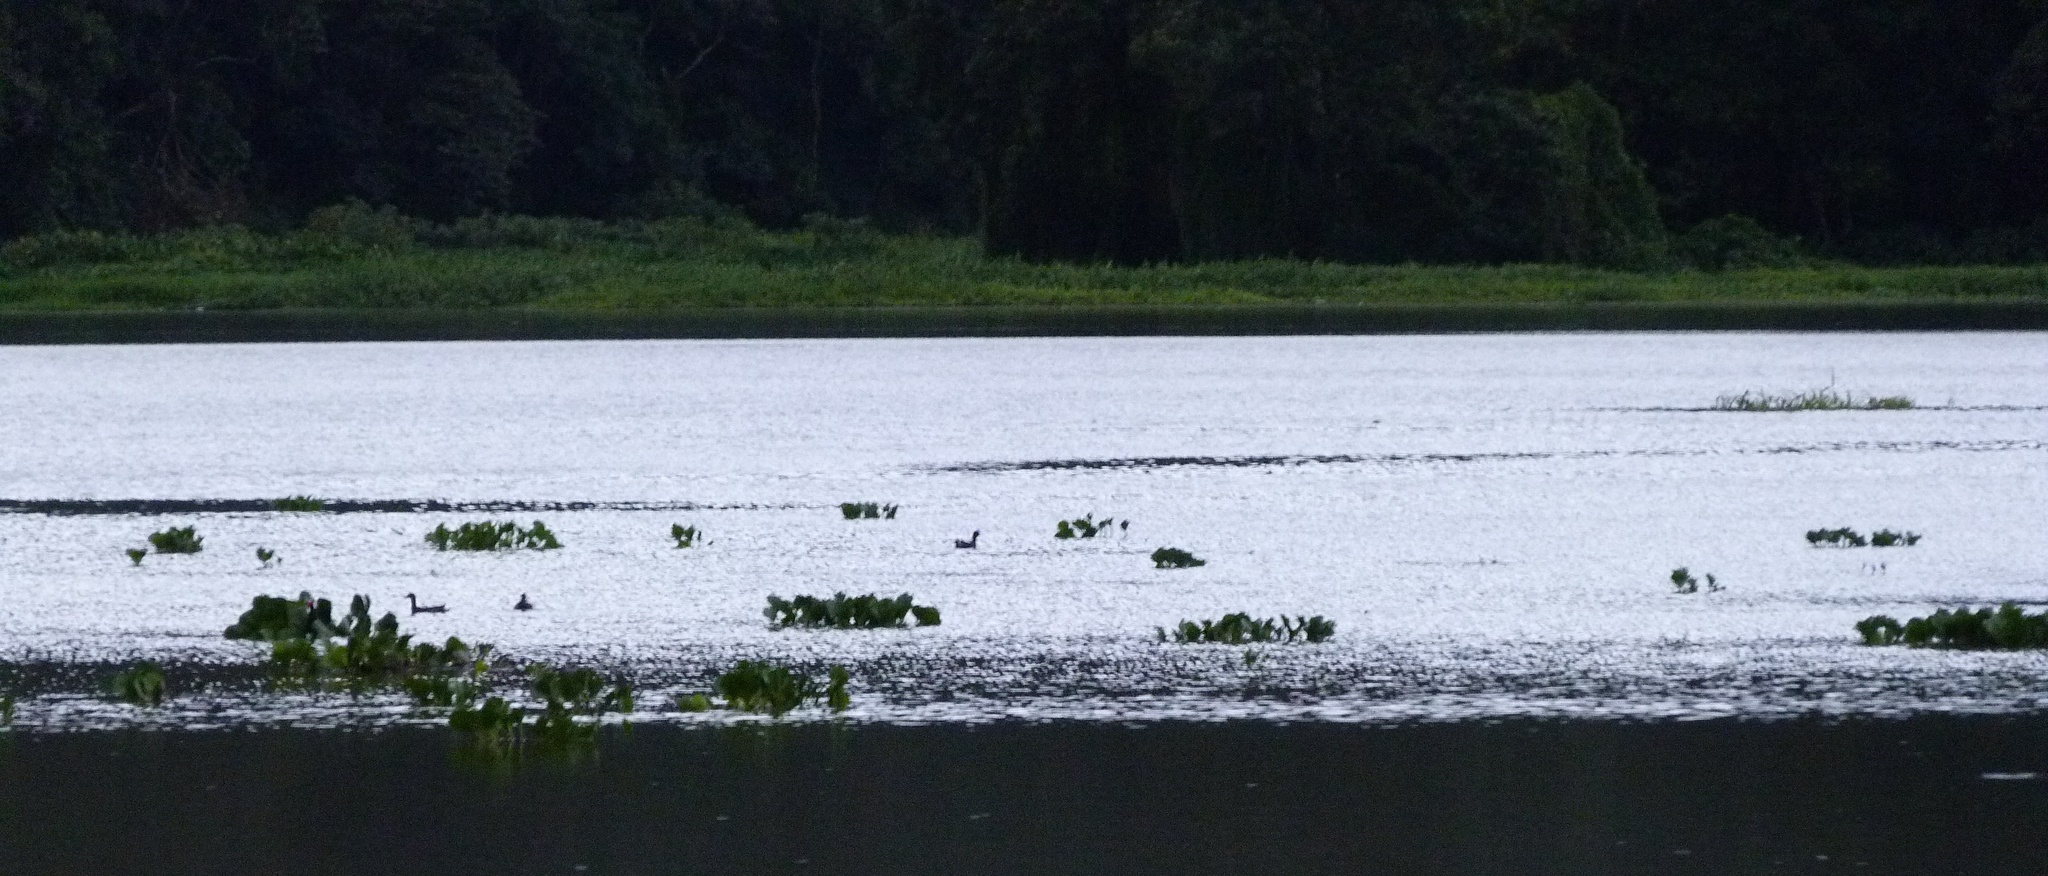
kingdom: Animalia
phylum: Chordata
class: Aves
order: Gruiformes
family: Rallidae
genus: Gallinula
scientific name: Gallinula chloropus
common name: Common moorhen
